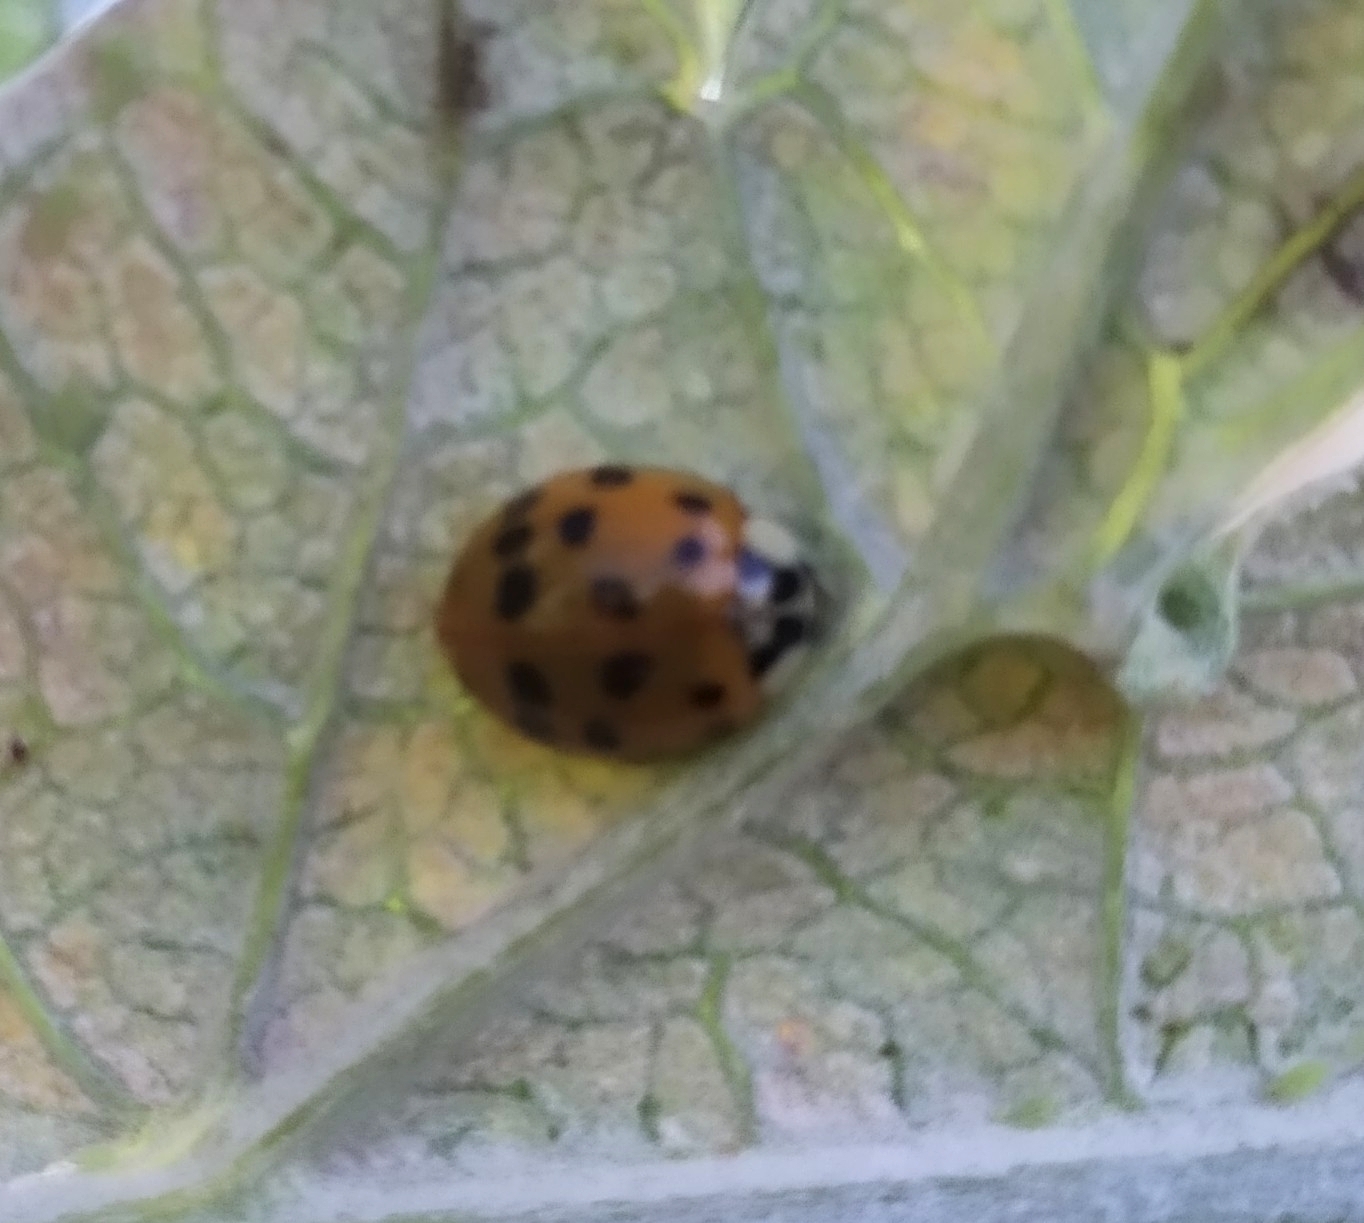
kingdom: Animalia
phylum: Arthropoda
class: Insecta
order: Coleoptera
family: Coccinellidae
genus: Harmonia
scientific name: Harmonia axyridis
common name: Harlequin ladybird
